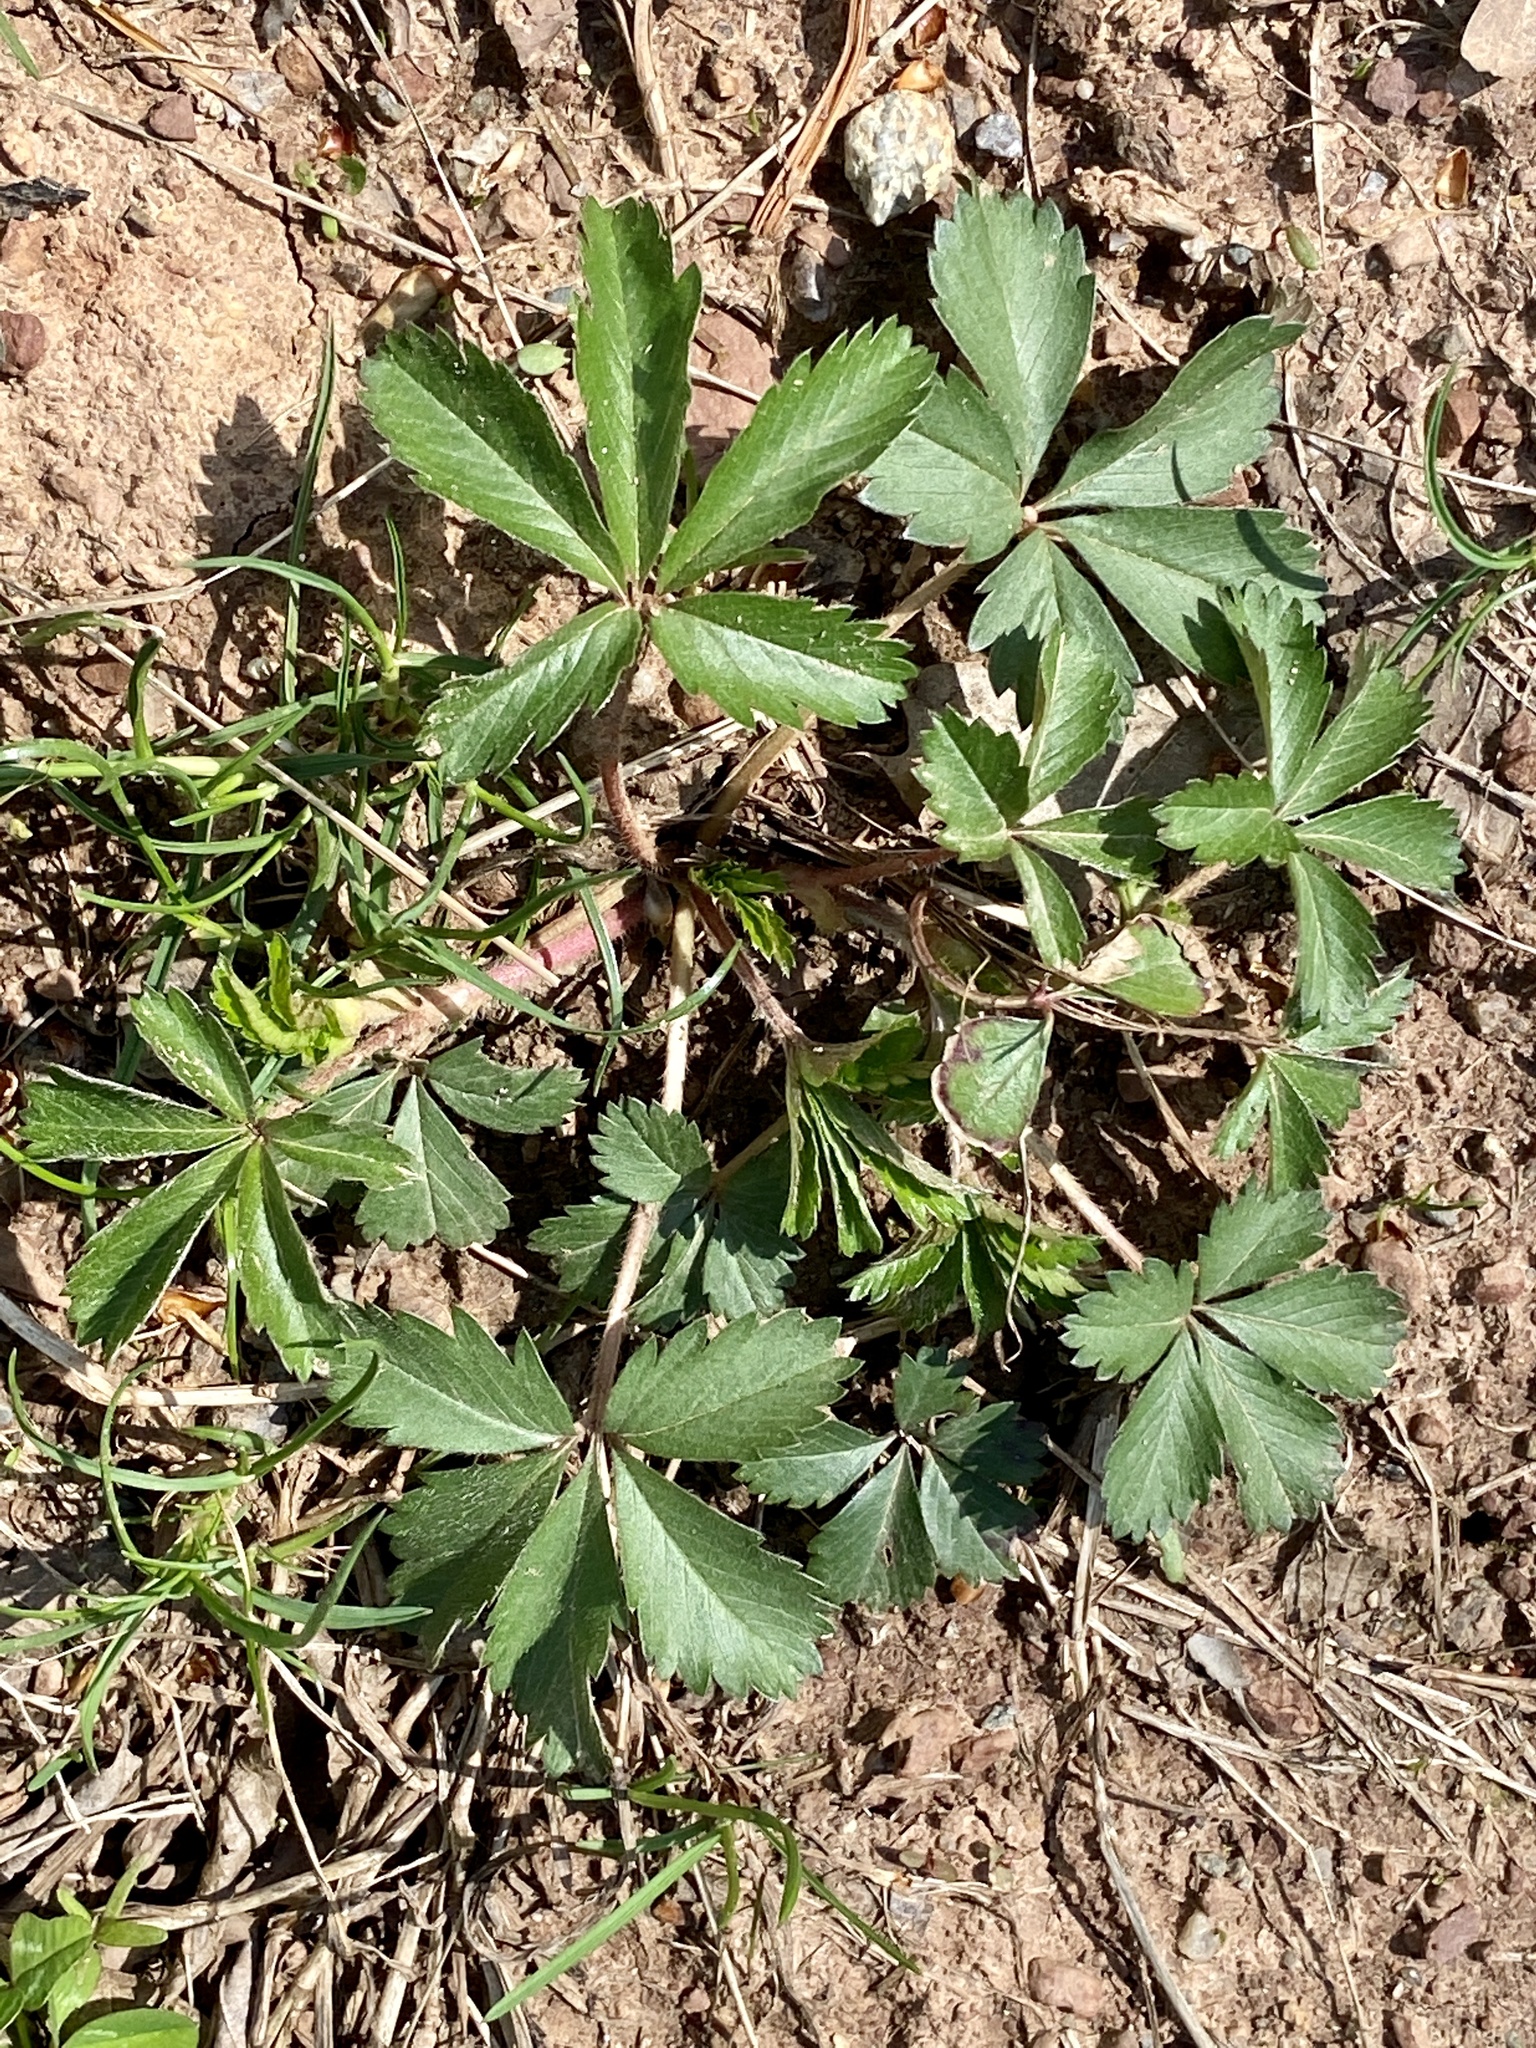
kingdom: Plantae
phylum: Tracheophyta
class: Magnoliopsida
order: Rosales
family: Rosaceae
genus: Potentilla
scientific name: Potentilla canadensis
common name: Canada cinquefoil
